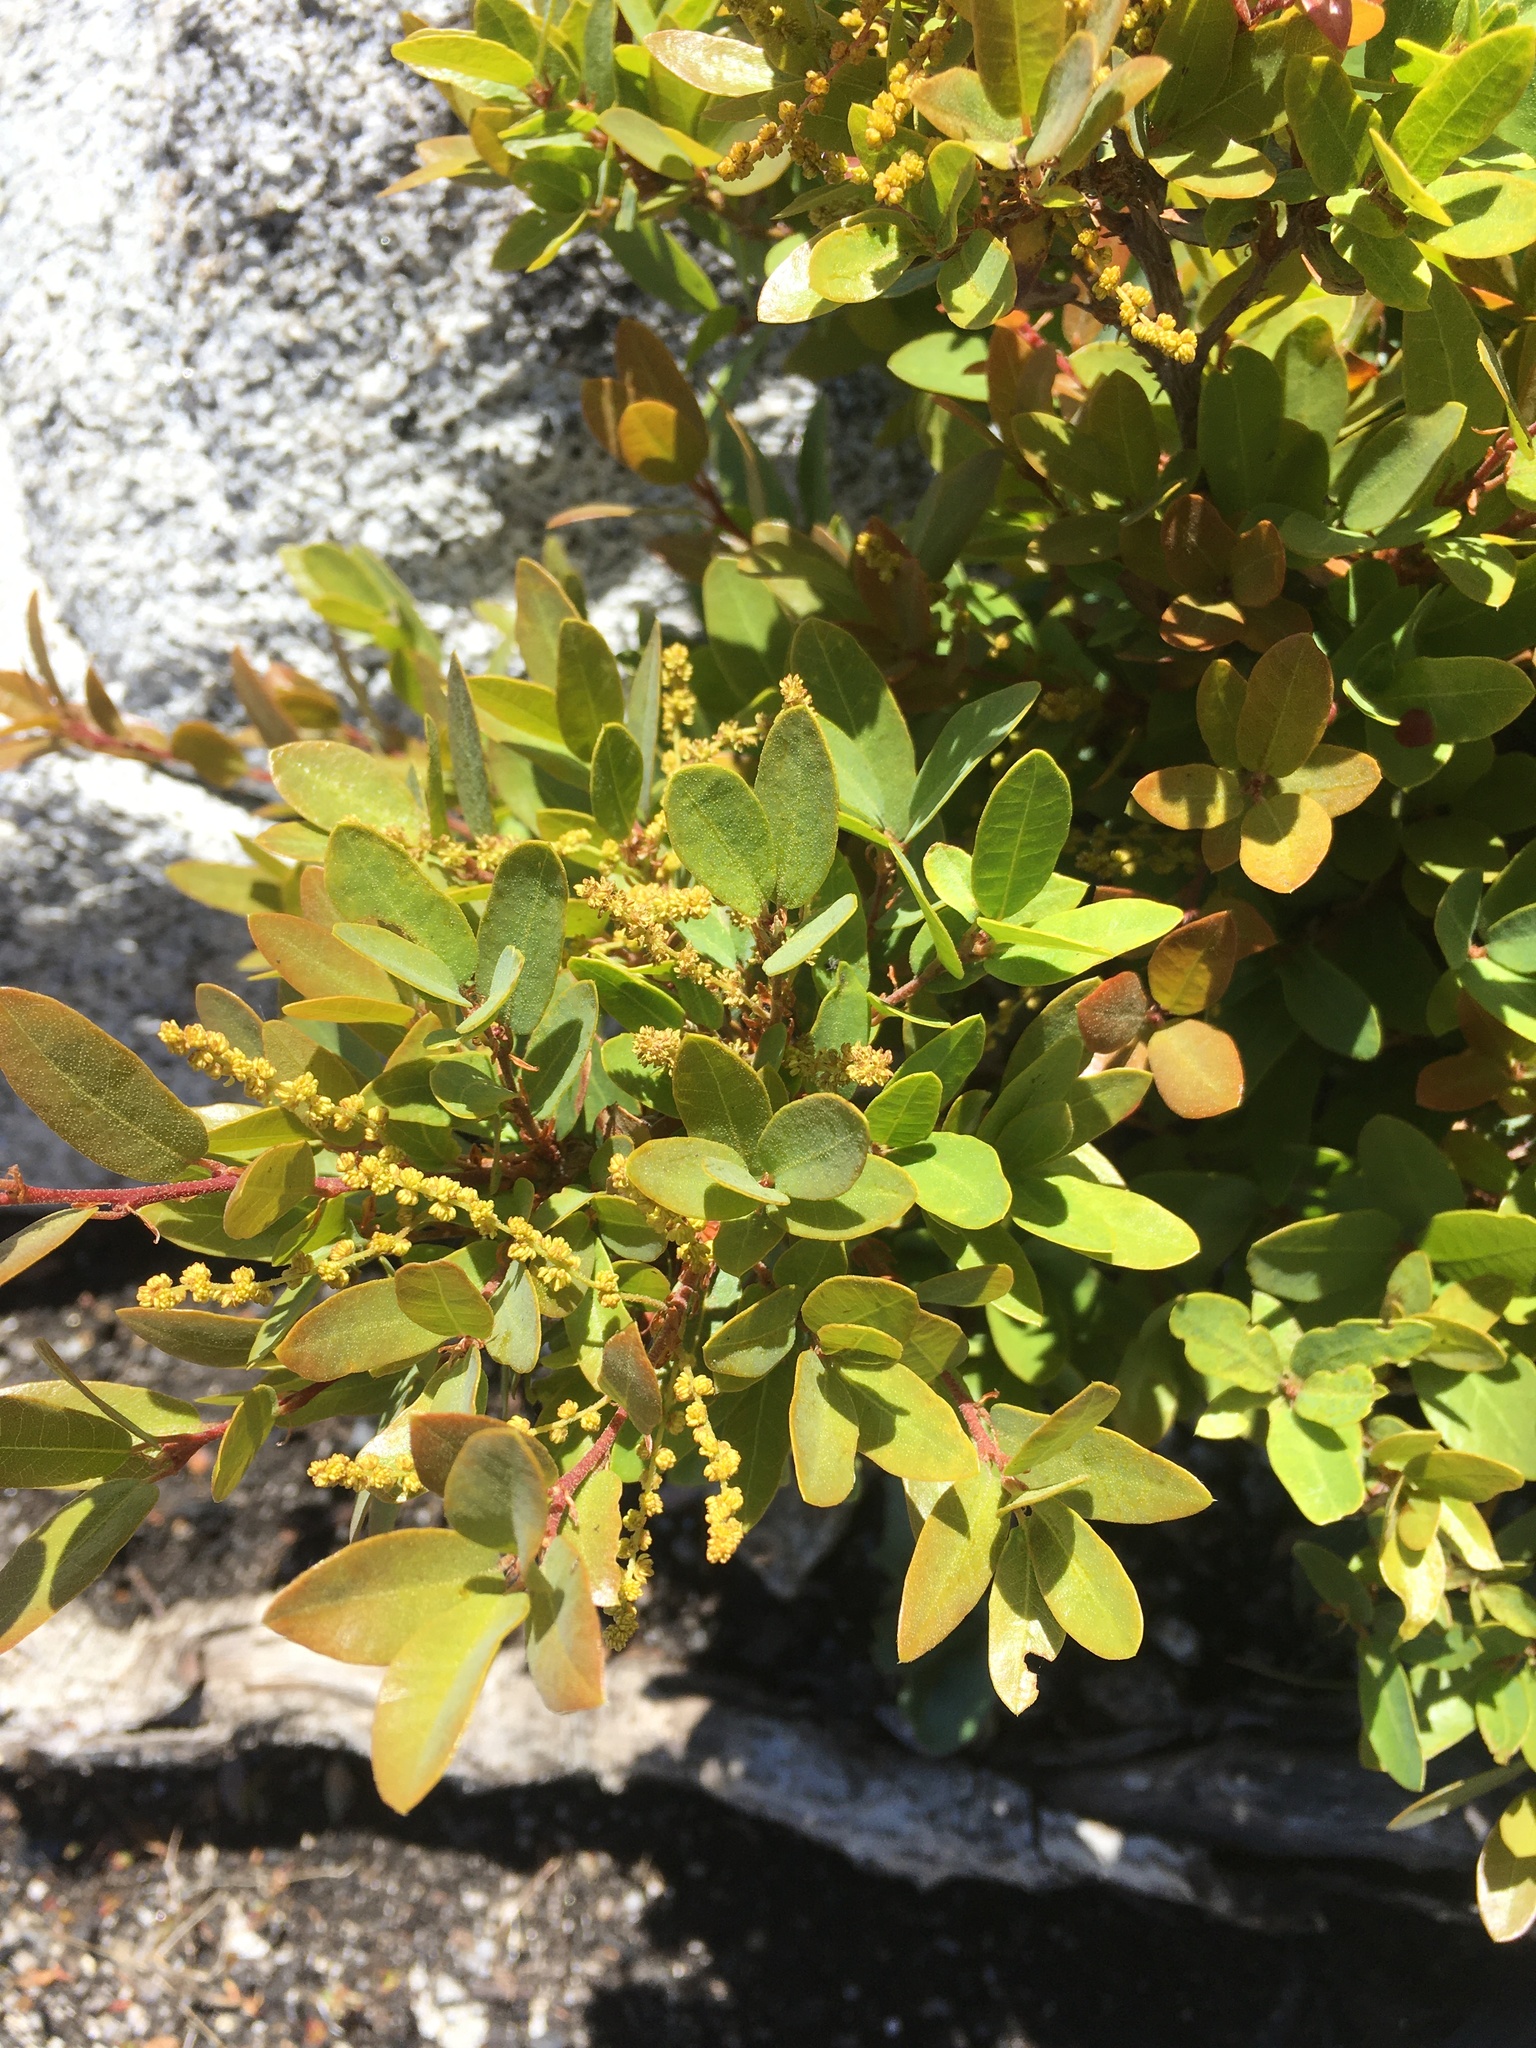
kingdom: Plantae
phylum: Tracheophyta
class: Magnoliopsida
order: Fagales
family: Fagaceae
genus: Quercus
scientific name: Quercus vacciniifolia
